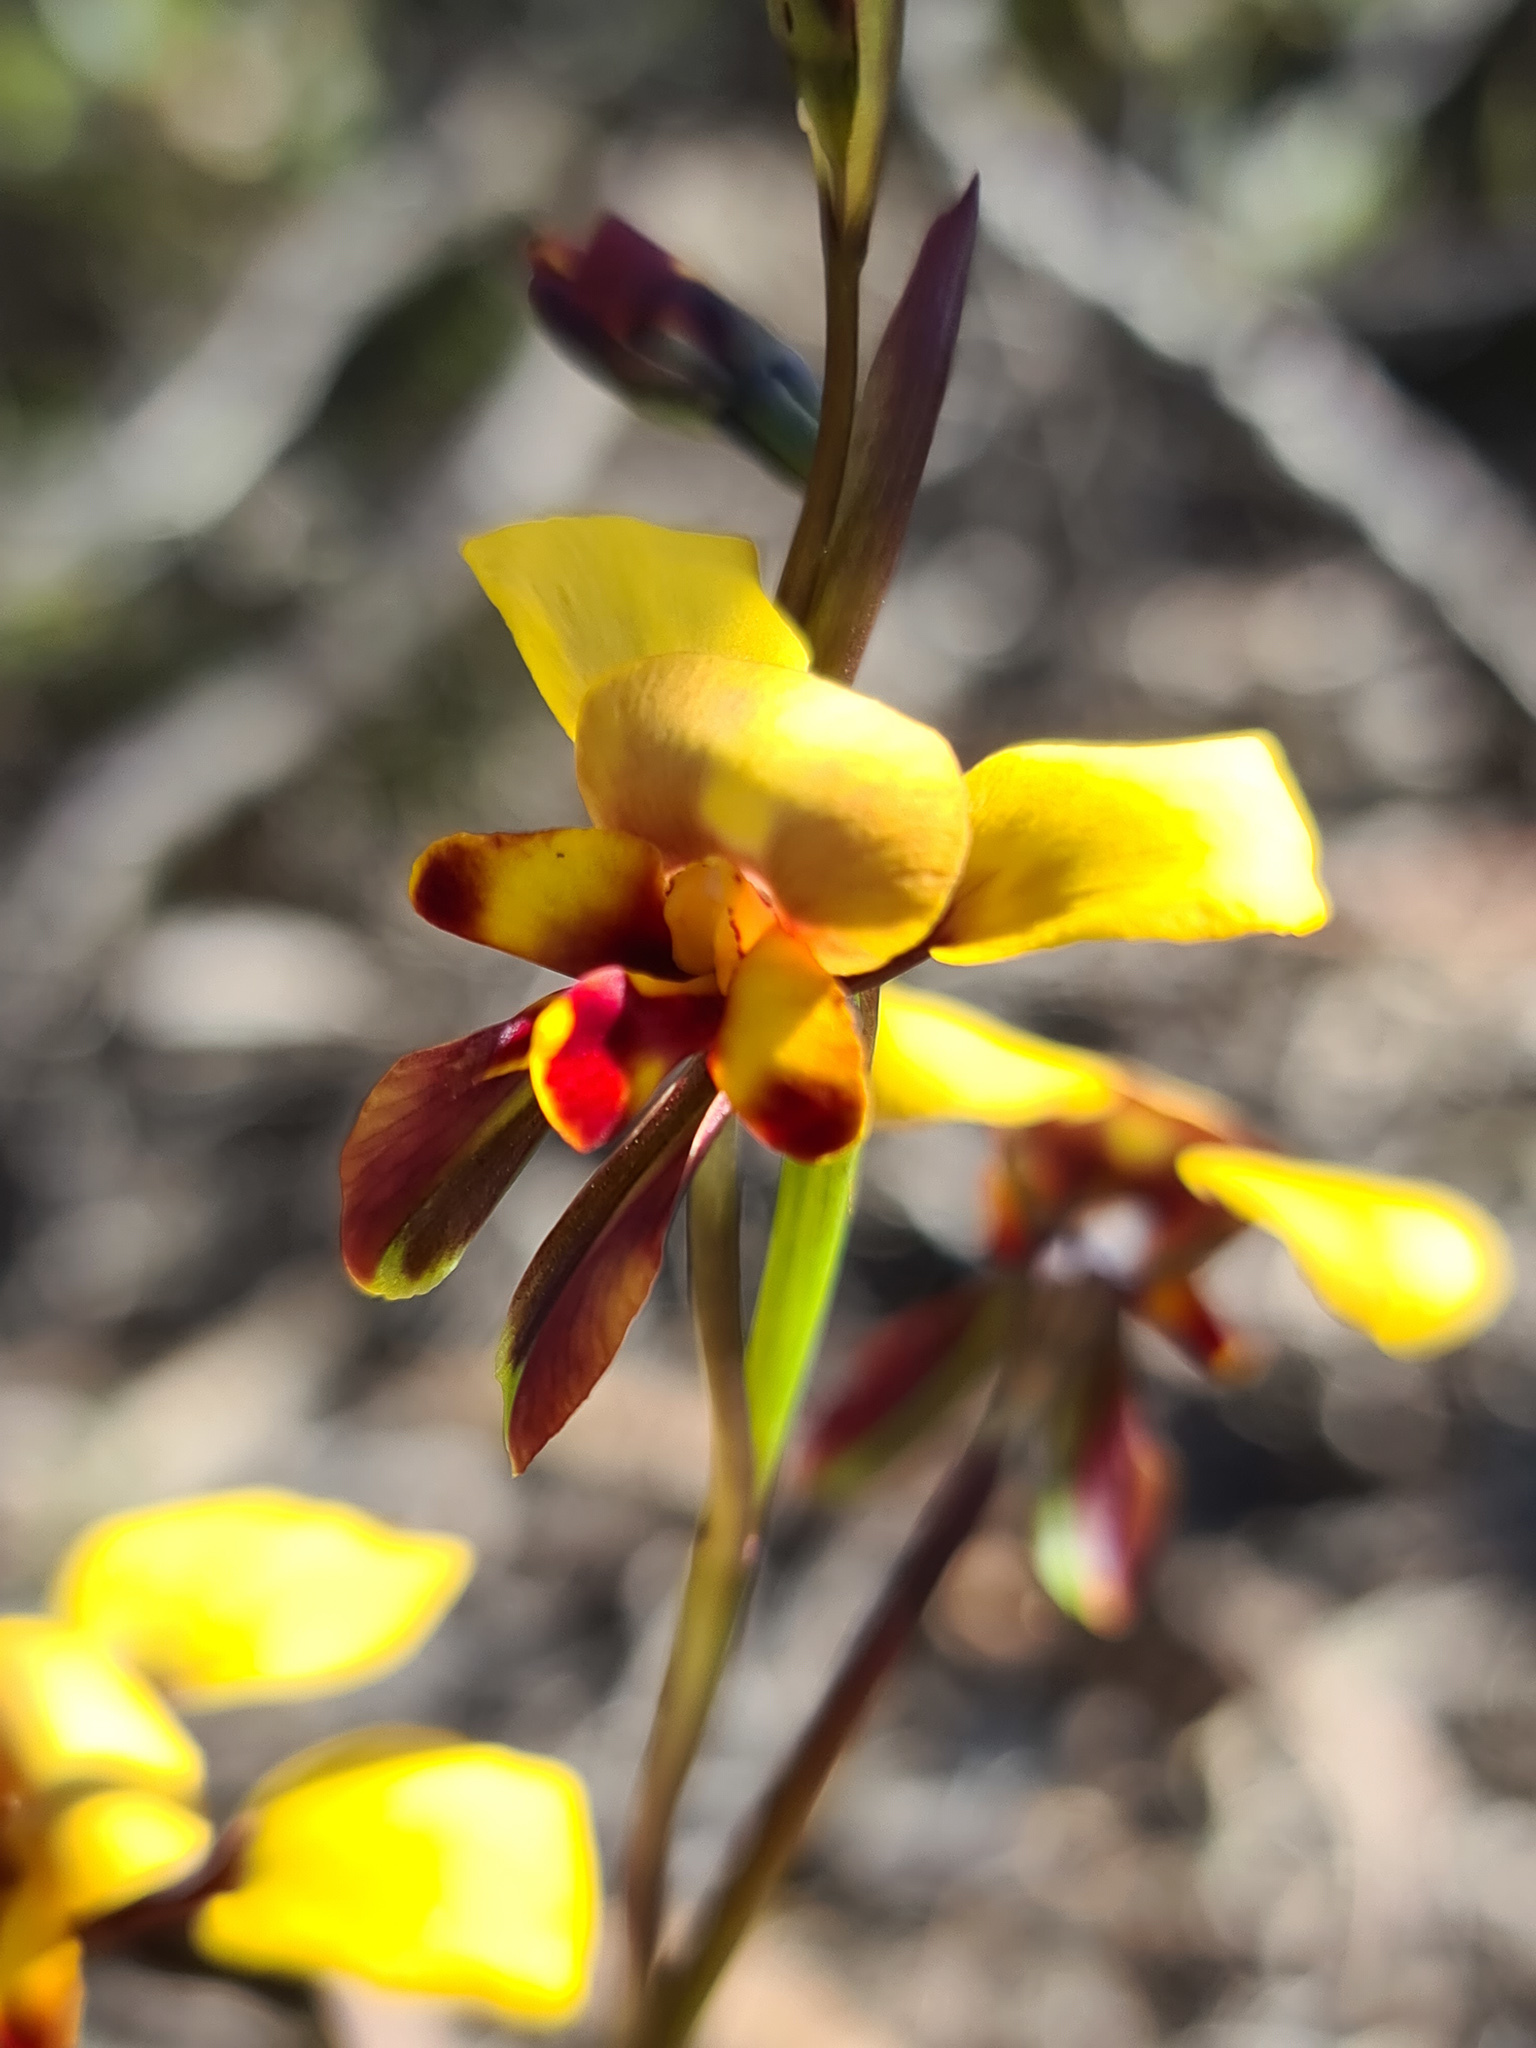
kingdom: Plantae
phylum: Tracheophyta
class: Liliopsida
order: Asparagales
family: Orchidaceae
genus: Diuris
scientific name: Diuris perialla
